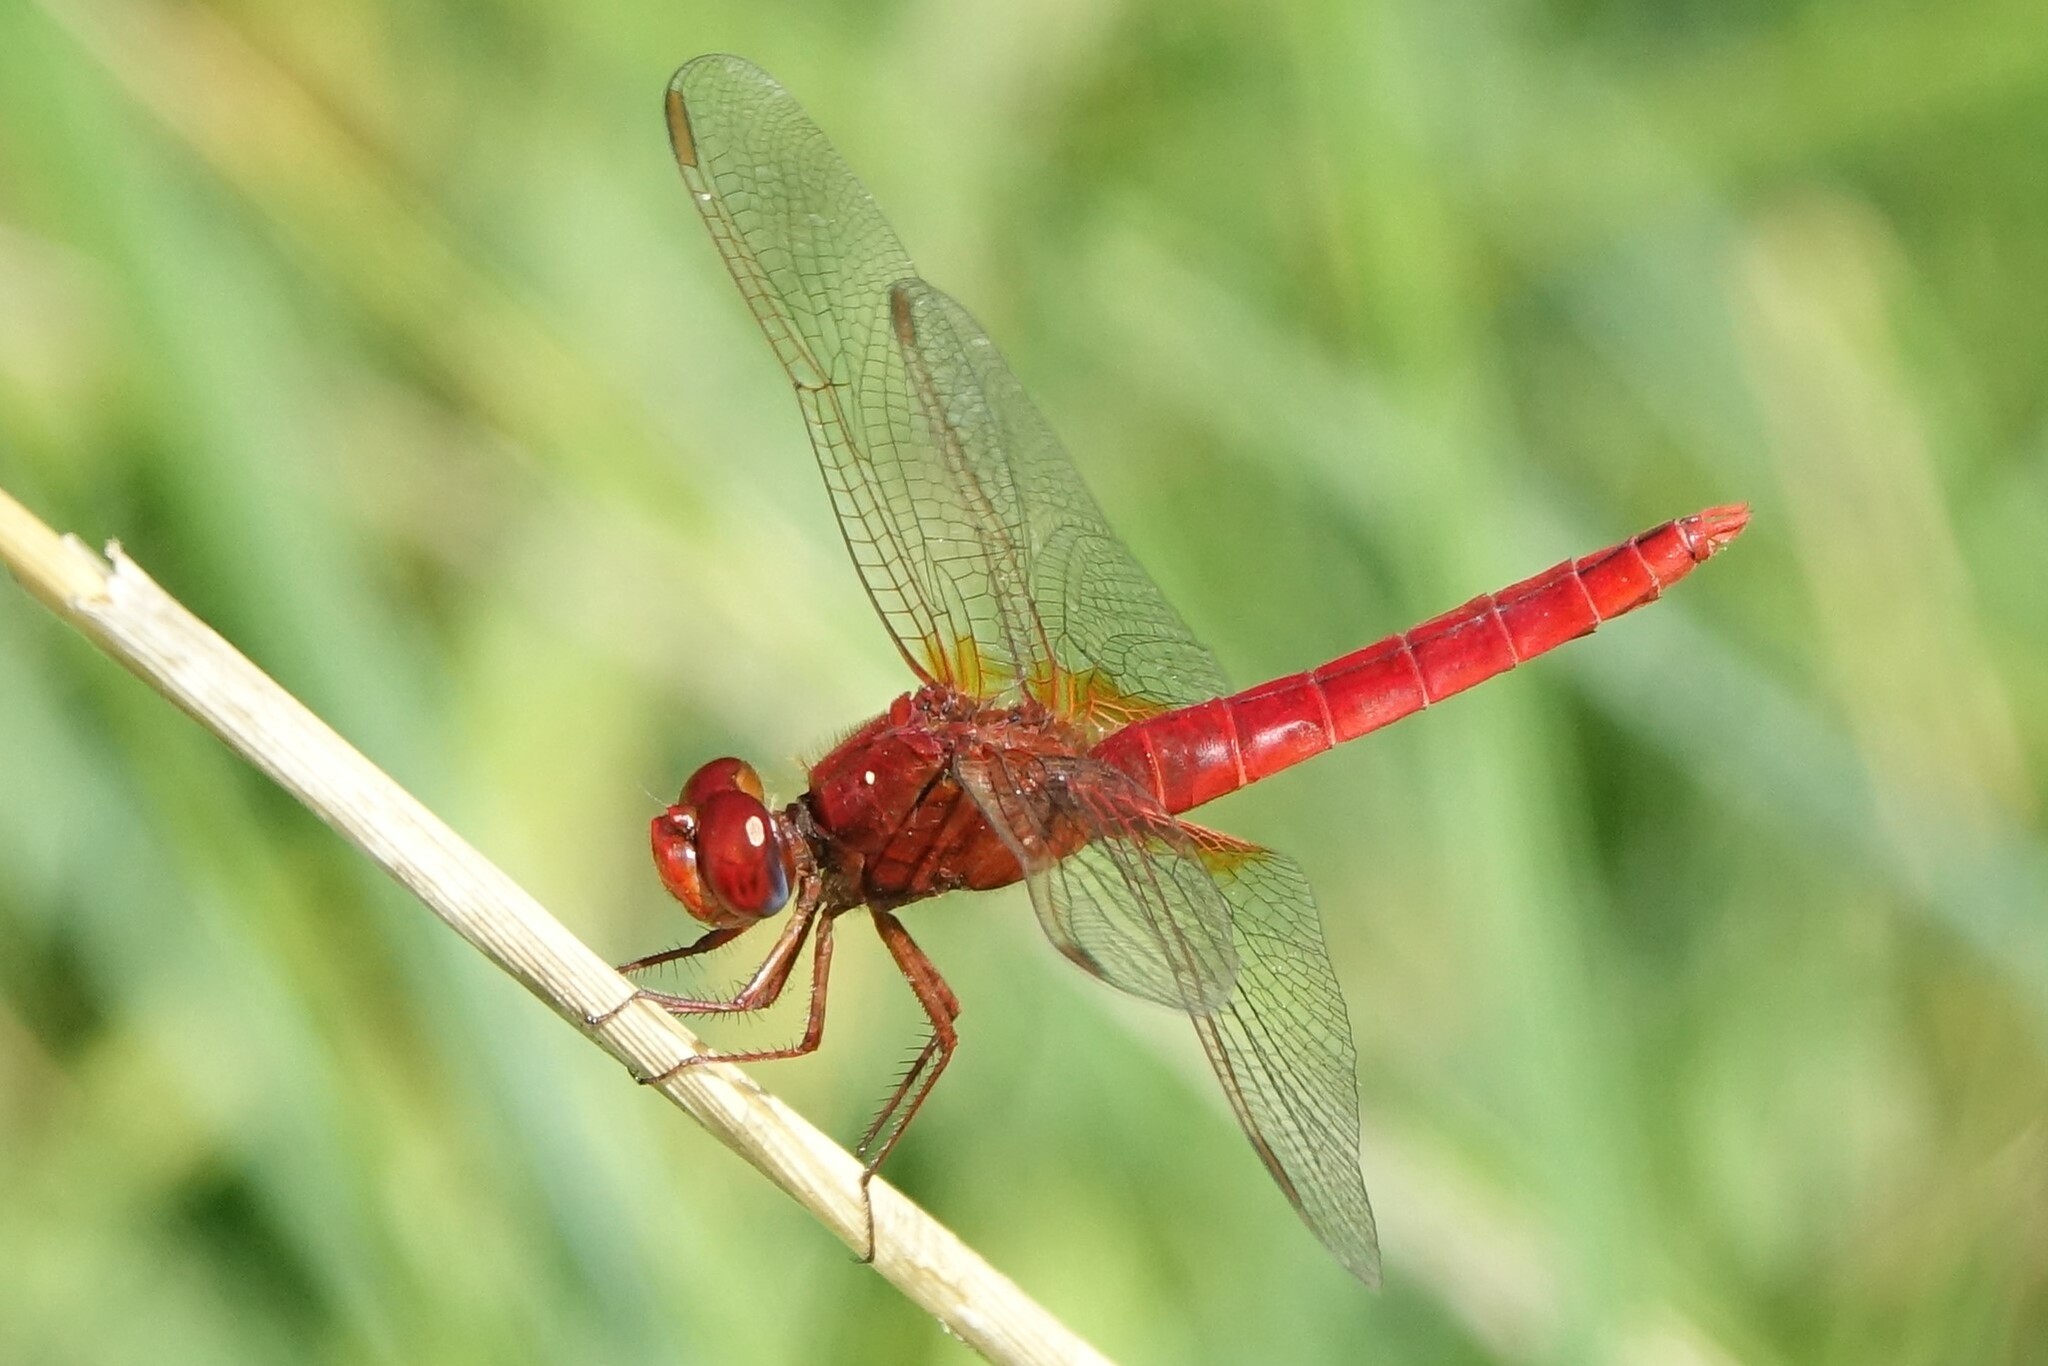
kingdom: Animalia
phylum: Arthropoda
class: Insecta
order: Odonata
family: Libellulidae
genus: Crocothemis
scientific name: Crocothemis erythraea
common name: Scarlet dragonfly
